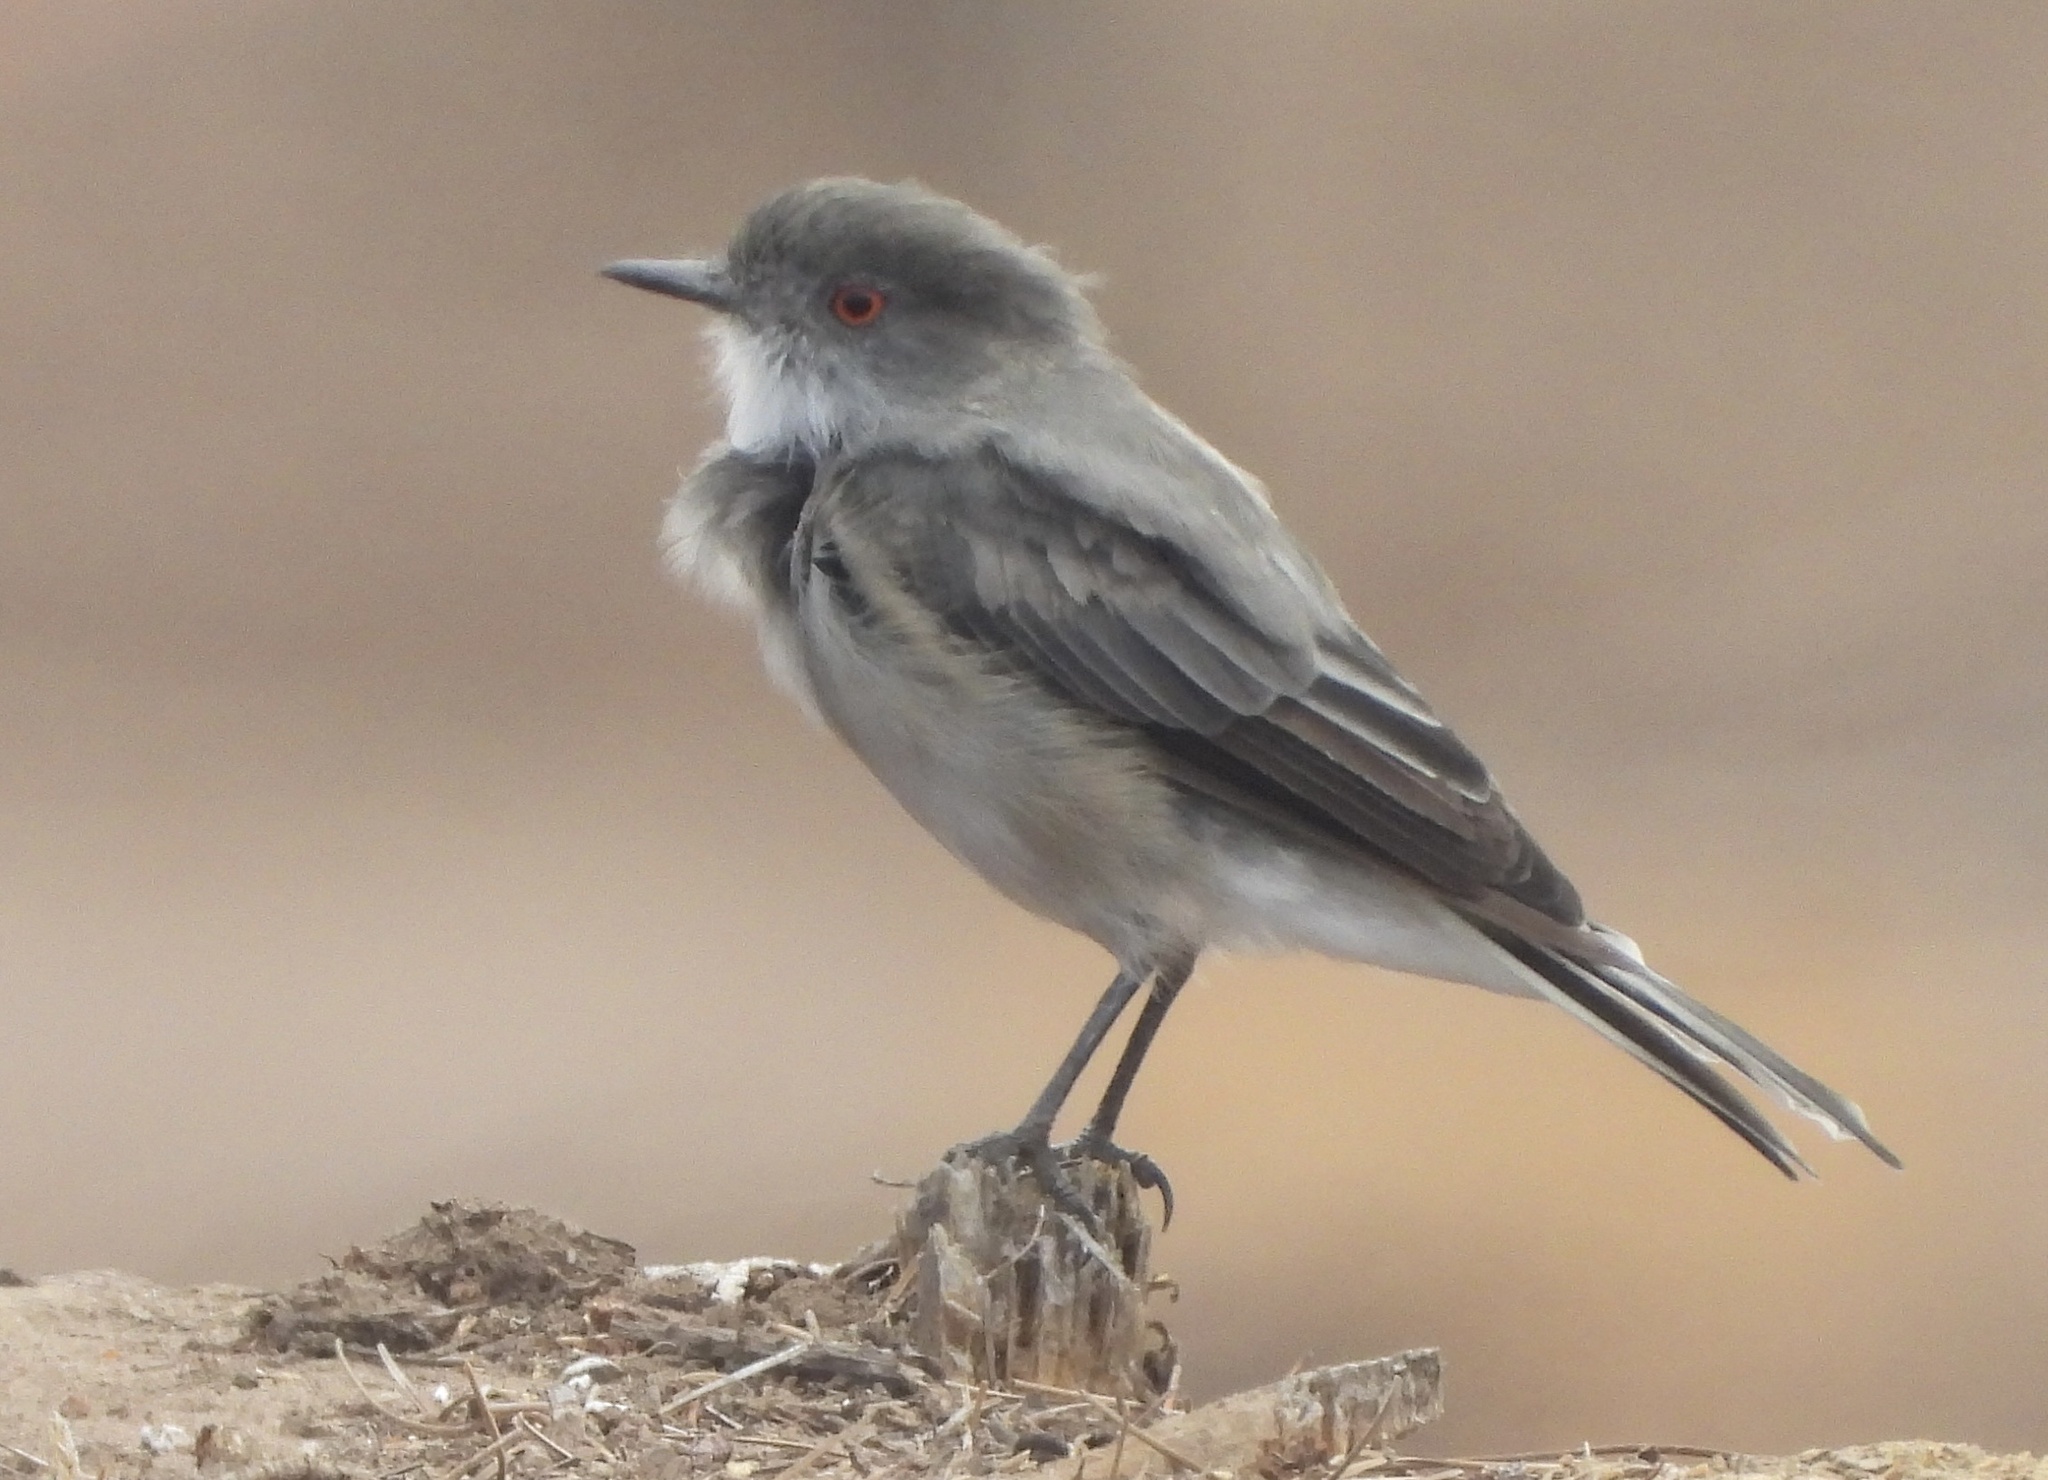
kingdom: Animalia
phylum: Chordata
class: Aves
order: Passeriformes
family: Tyrannidae
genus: Xolmis
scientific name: Xolmis pyrope
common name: Fire-eyed diucon
